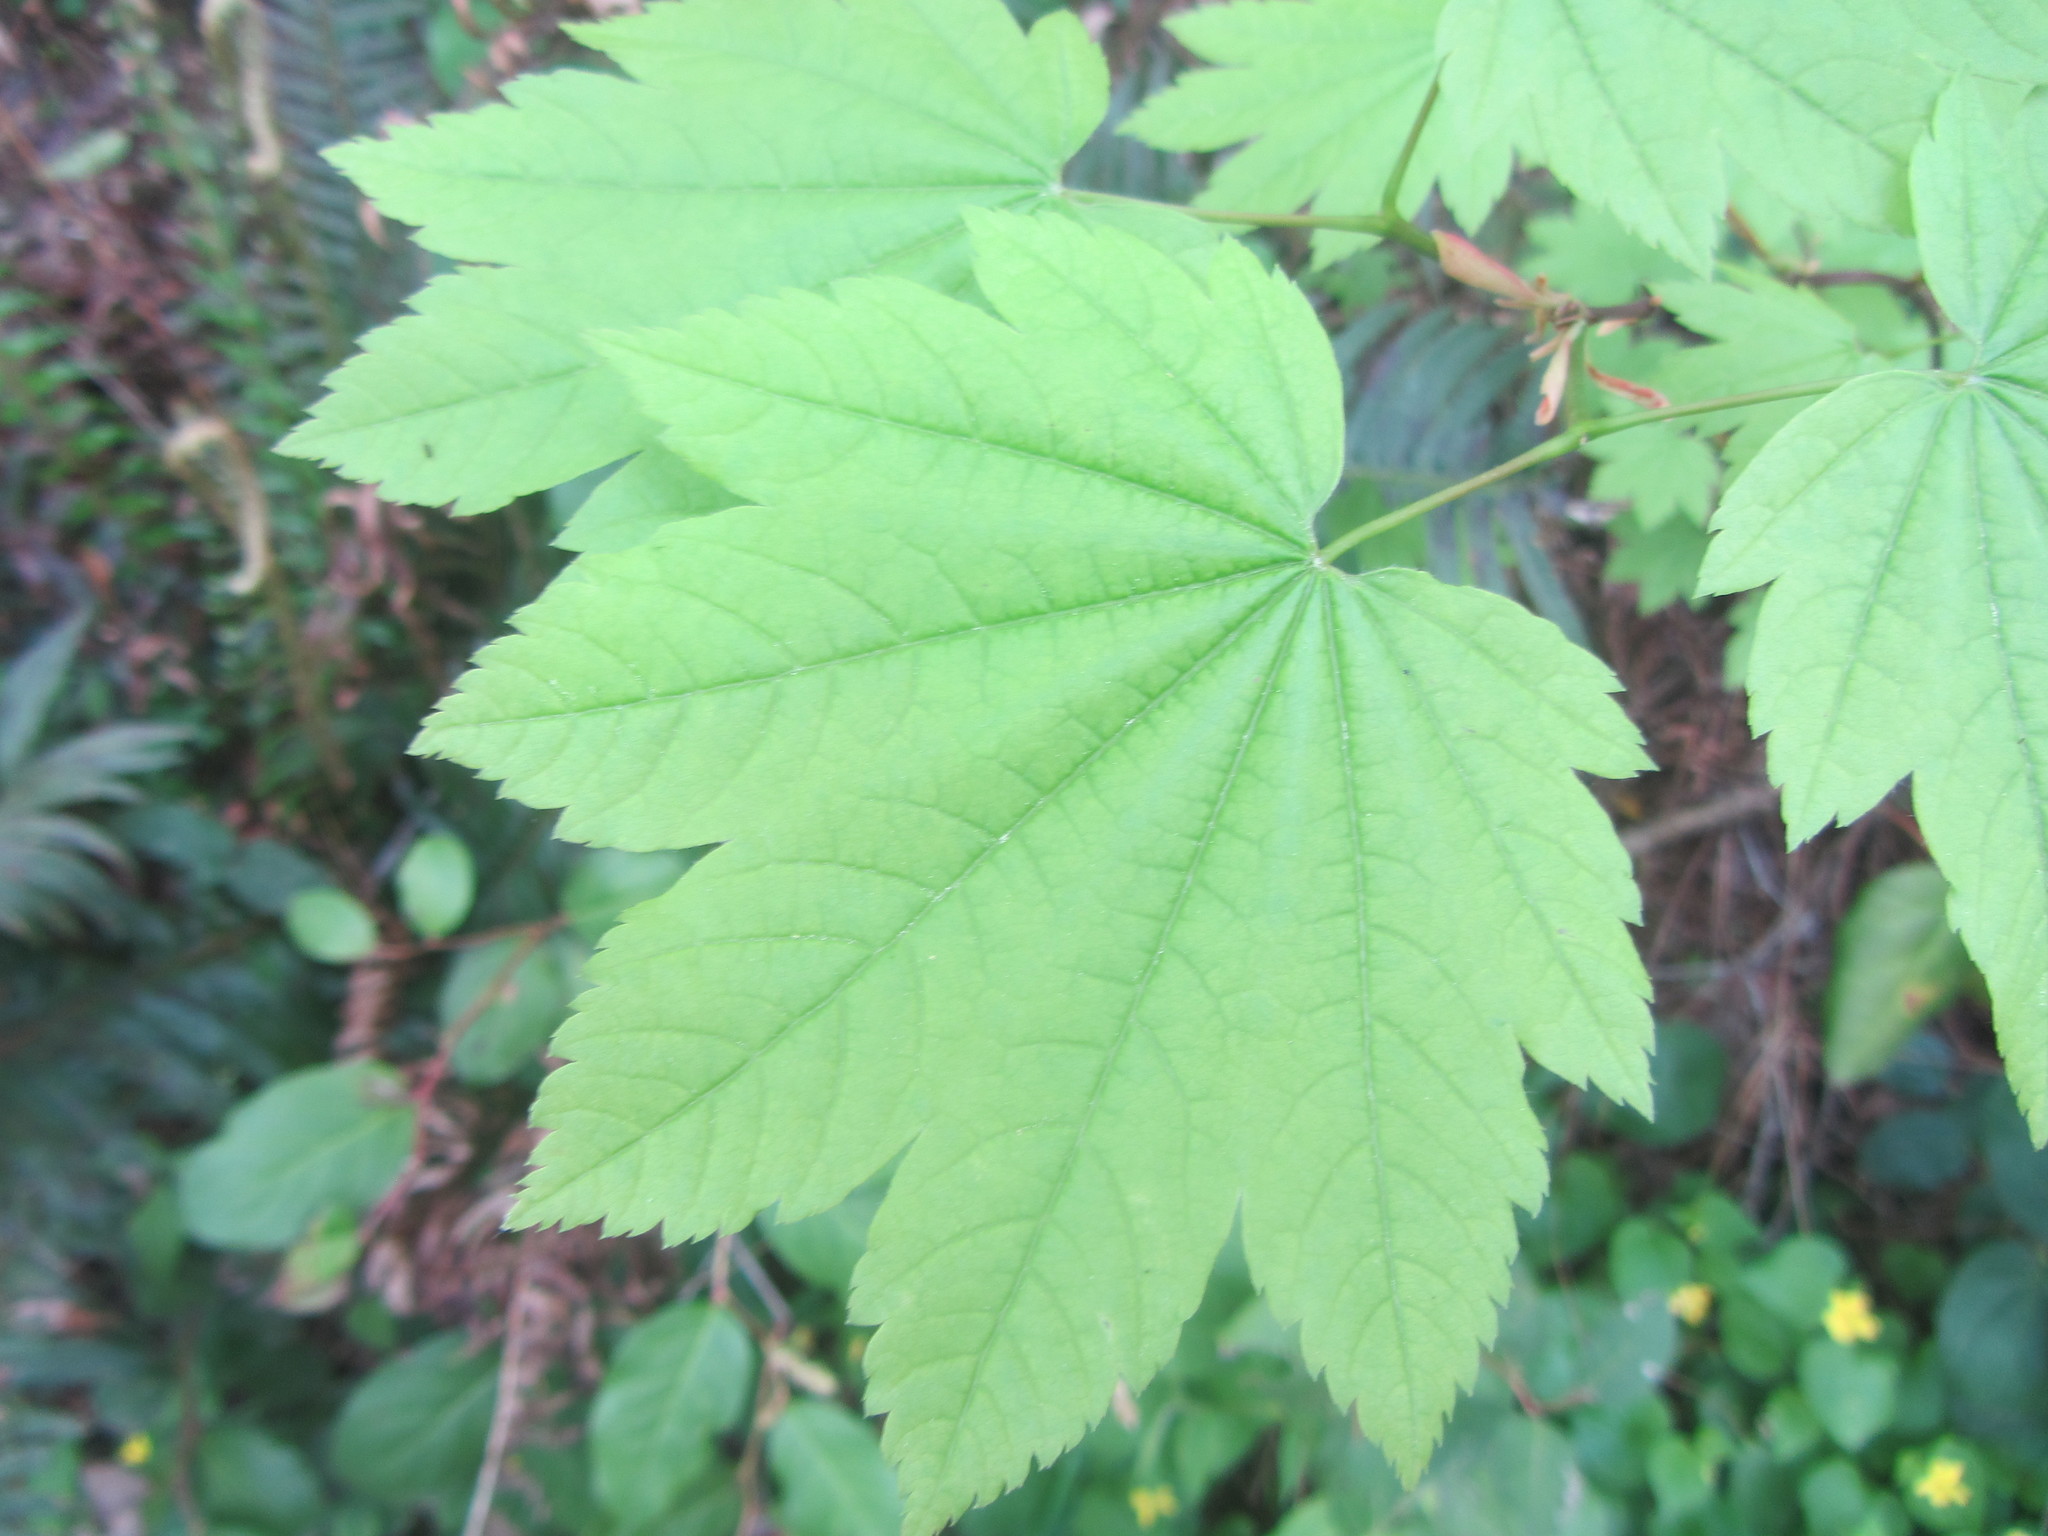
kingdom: Plantae
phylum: Tracheophyta
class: Magnoliopsida
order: Sapindales
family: Sapindaceae
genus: Acer
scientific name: Acer circinatum
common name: Vine maple
